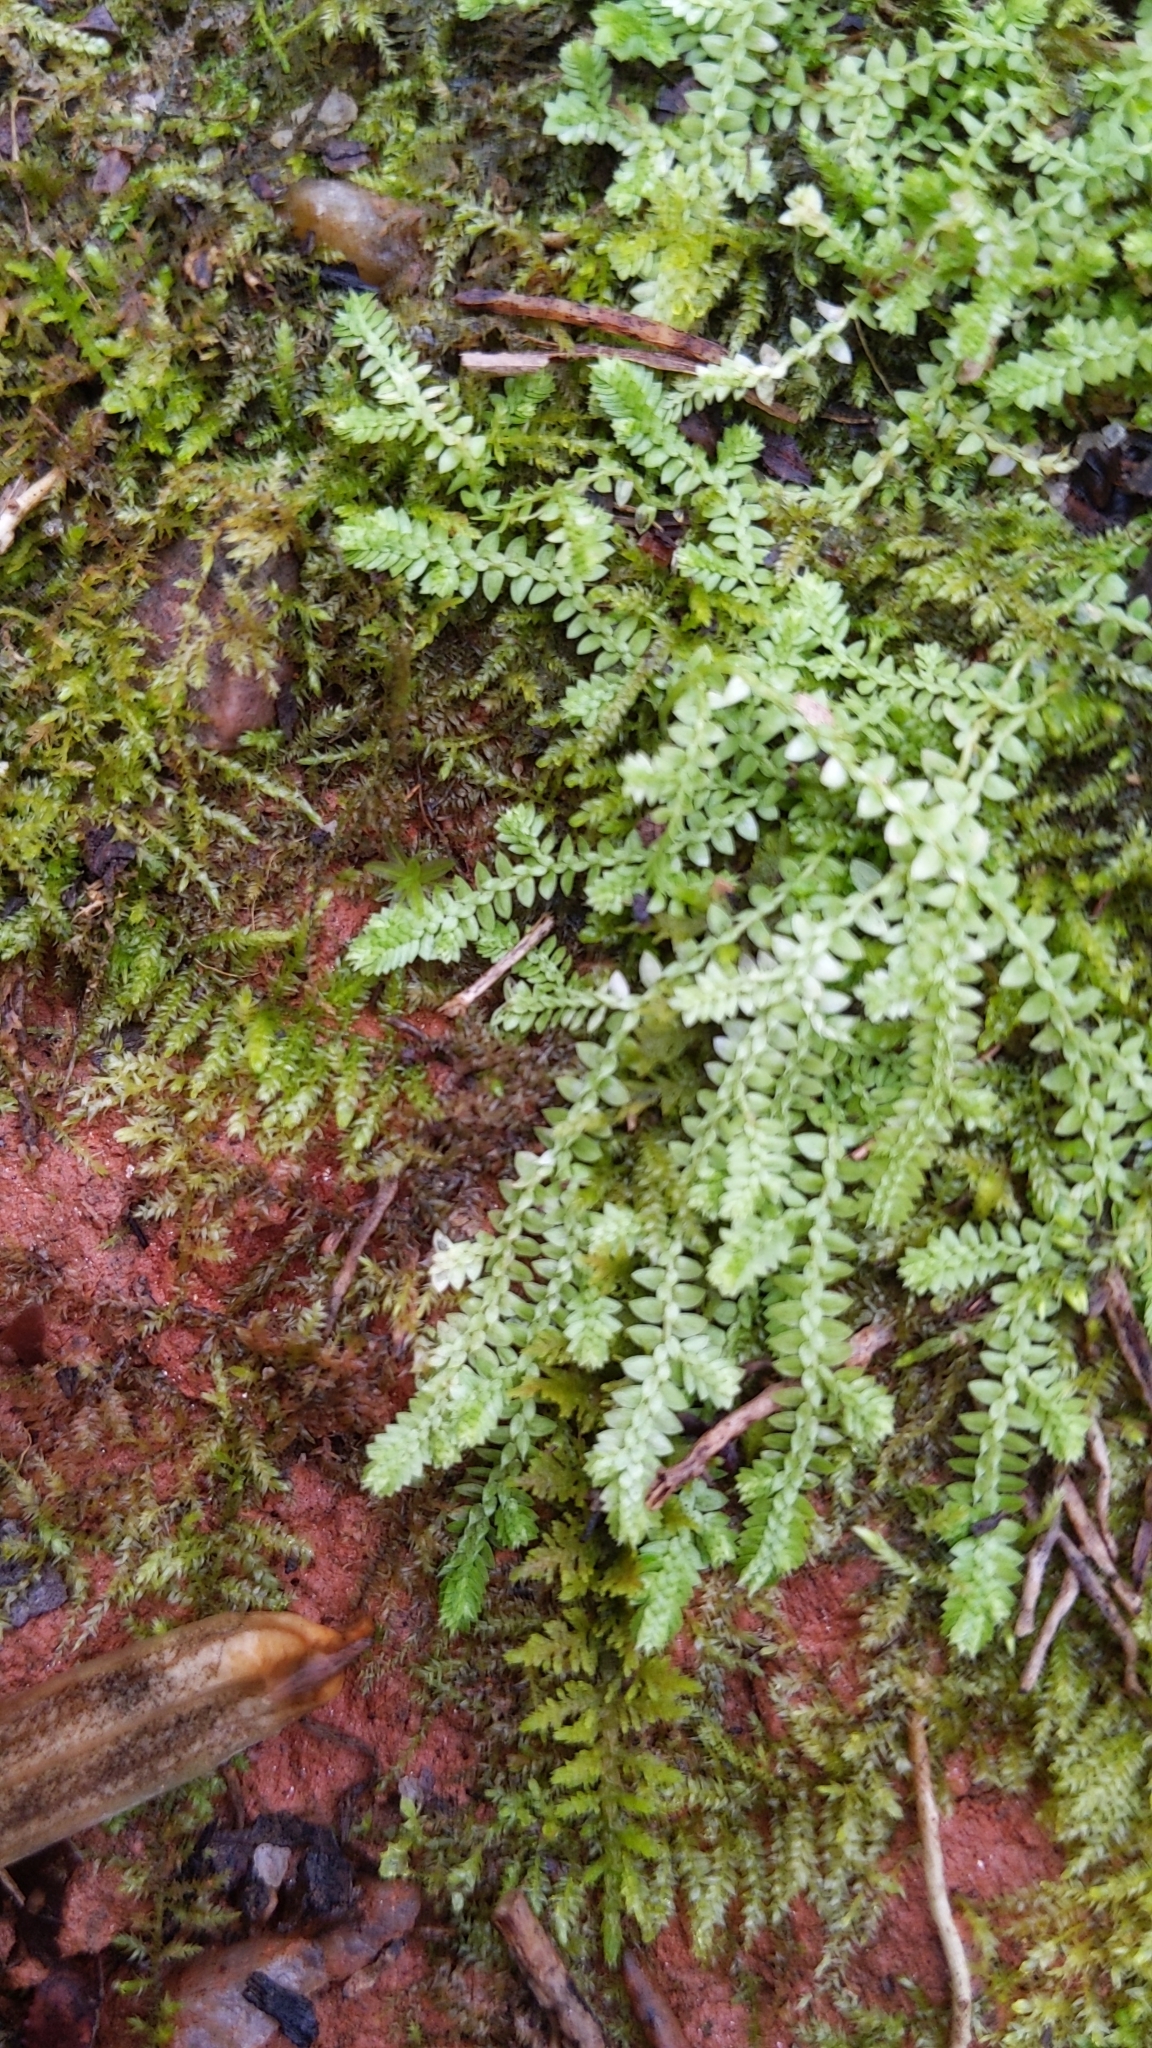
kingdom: Plantae
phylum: Tracheophyta
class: Lycopodiopsida
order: Selaginellales
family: Selaginellaceae
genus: Selaginella
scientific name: Selaginella apoda
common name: Creeping spikemoss
